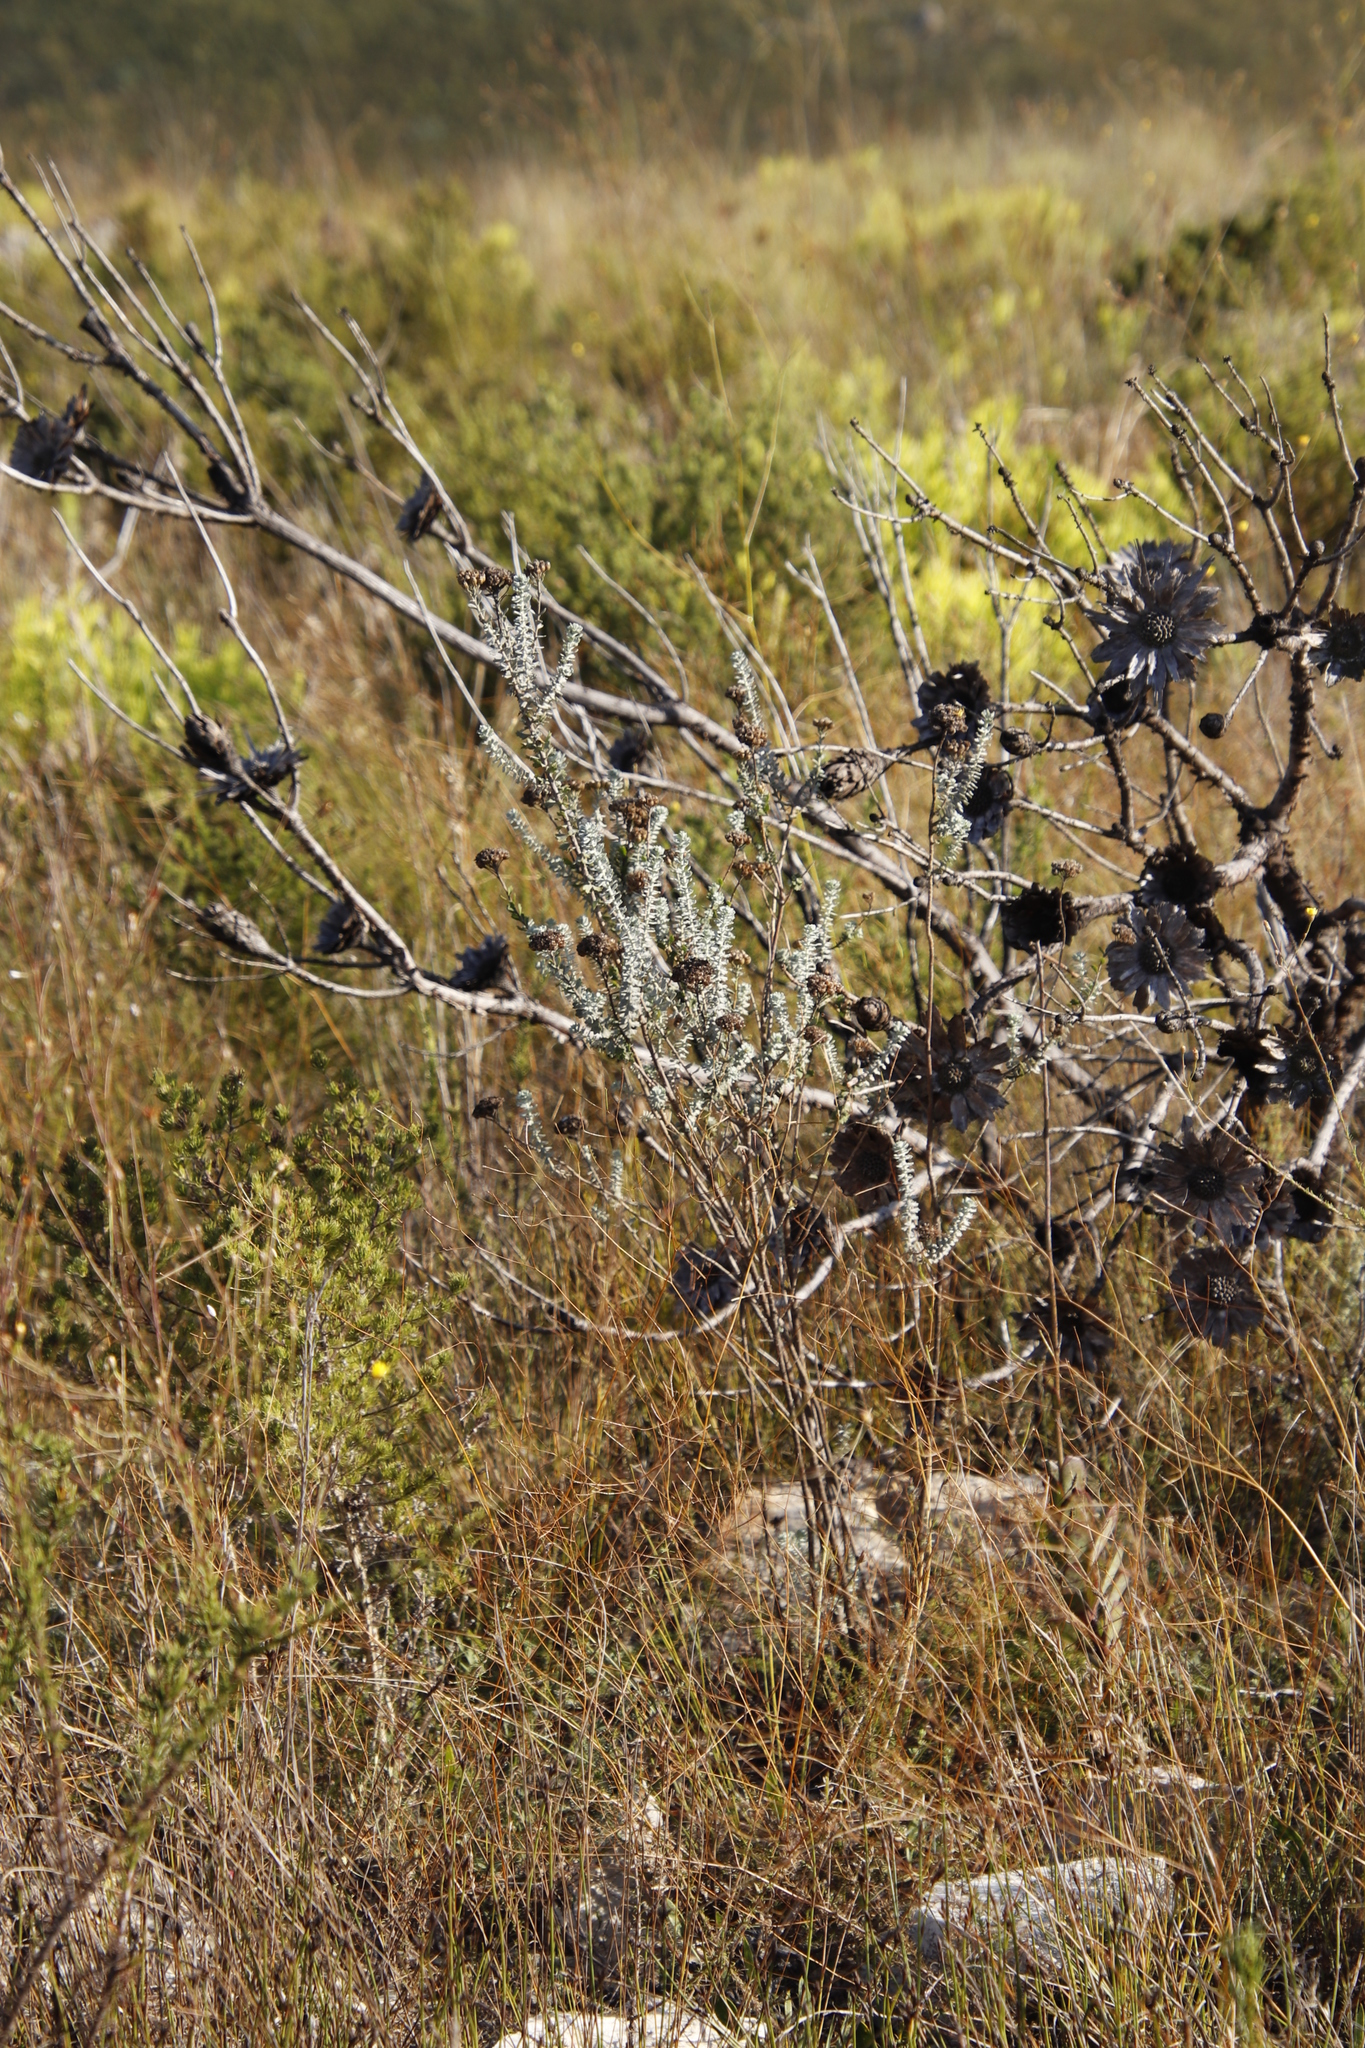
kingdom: Plantae
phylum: Tracheophyta
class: Magnoliopsida
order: Proteales
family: Proteaceae
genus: Protea
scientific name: Protea repens
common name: Sugarbush
